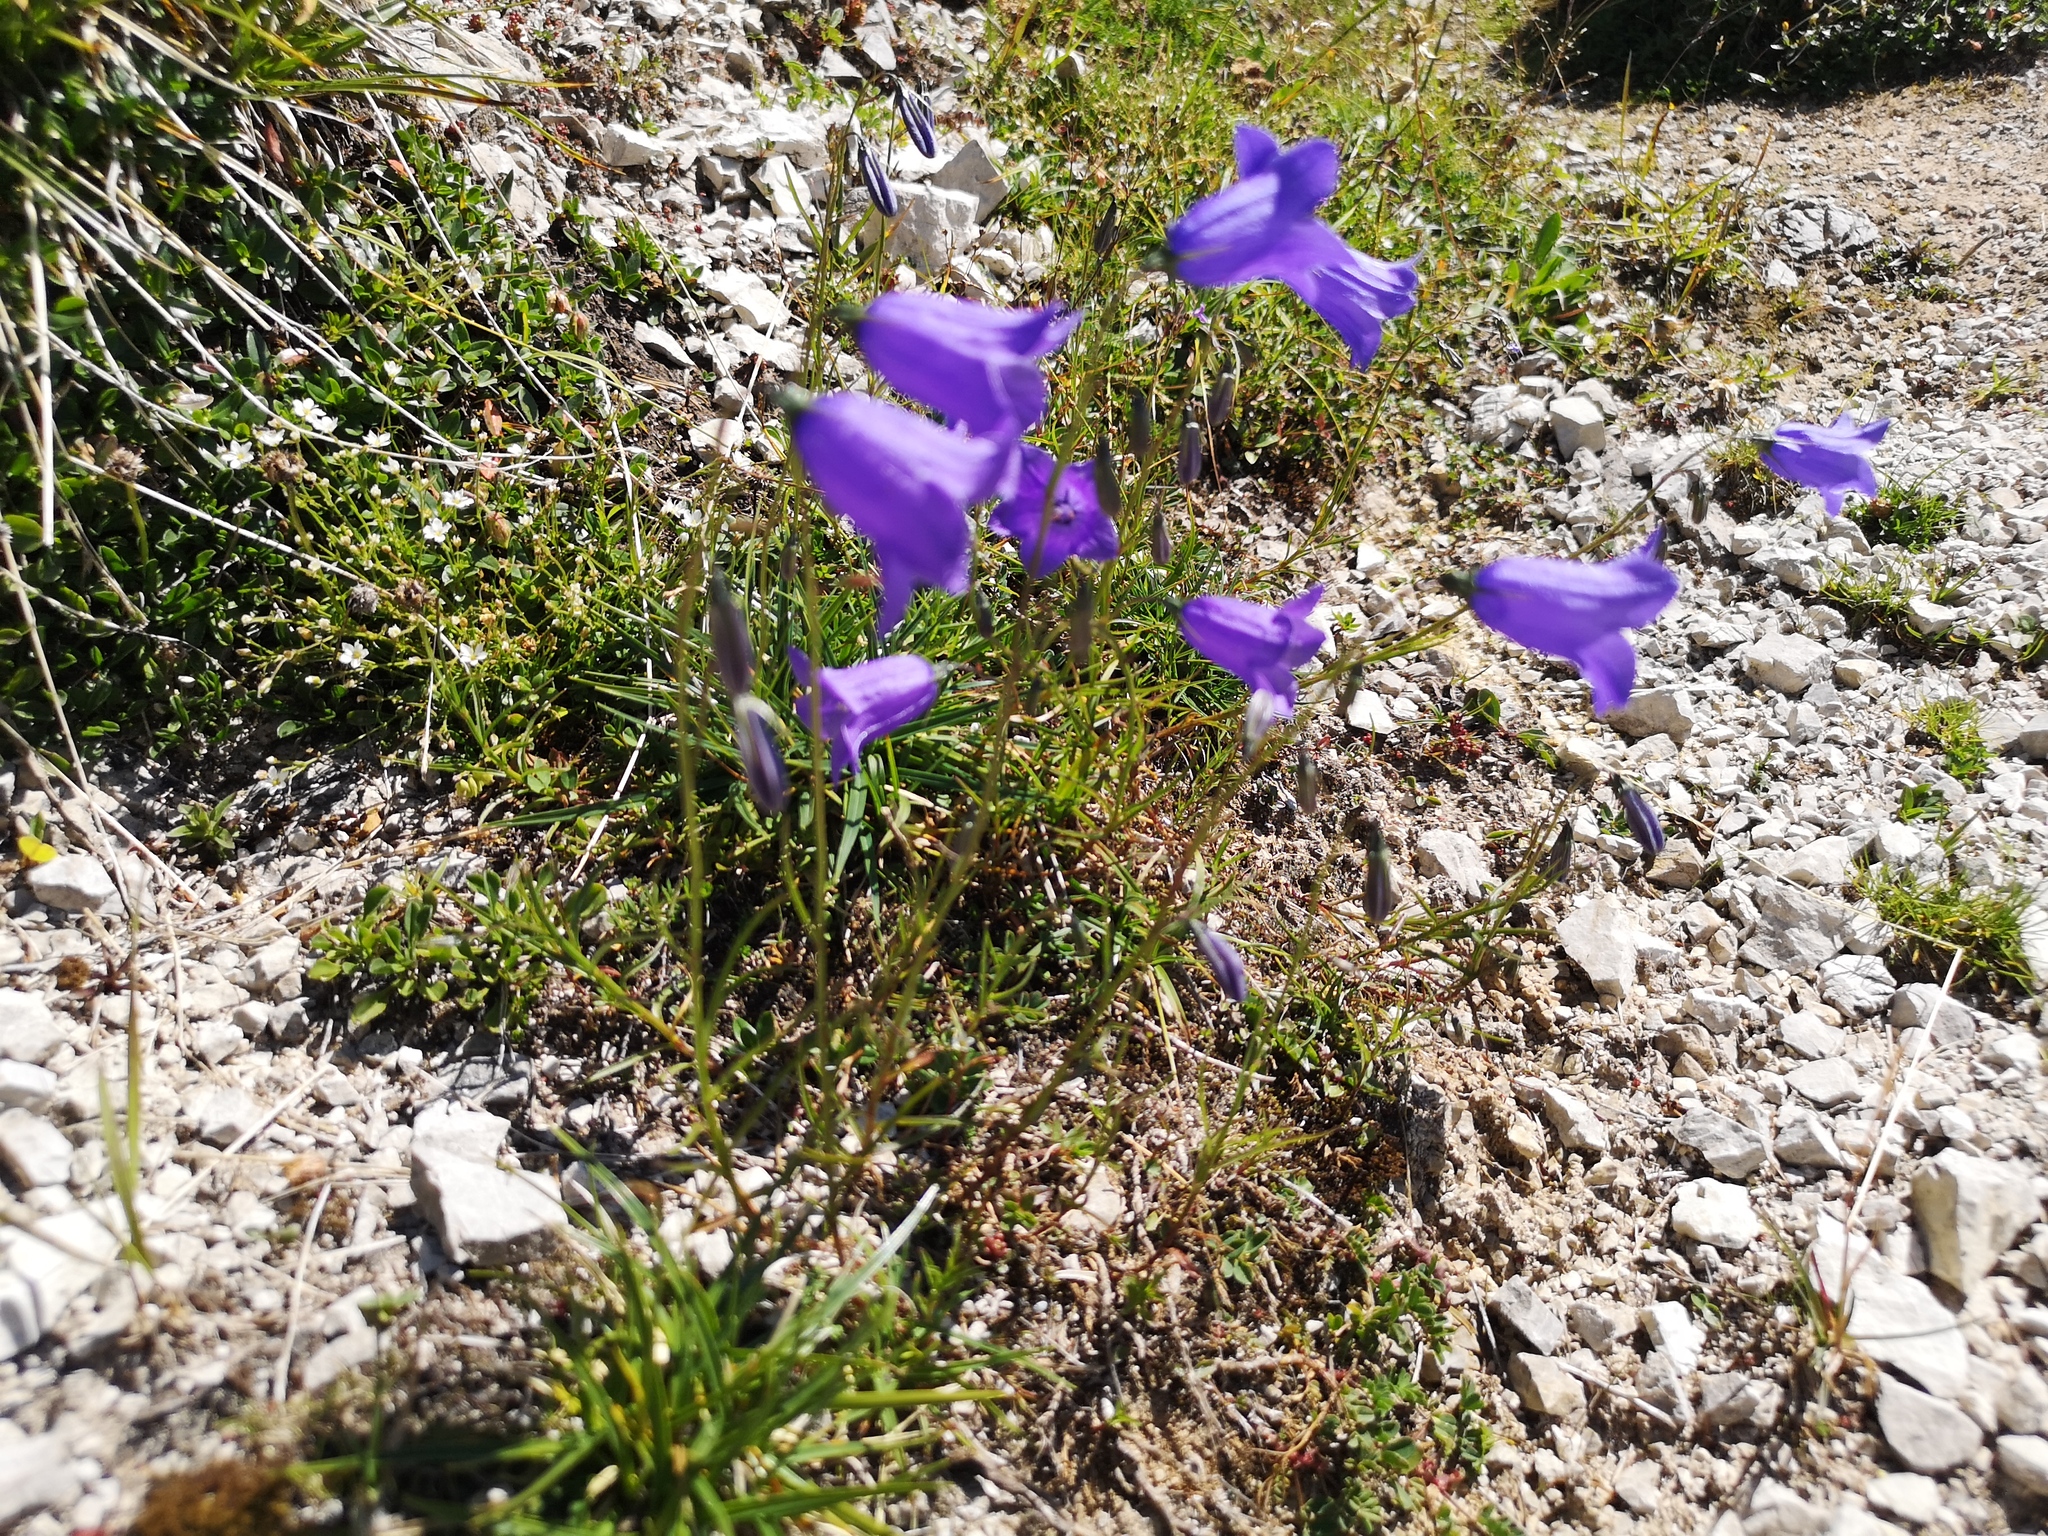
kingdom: Plantae
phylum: Tracheophyta
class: Magnoliopsida
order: Asterales
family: Campanulaceae
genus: Campanula
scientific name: Campanula scheuchzeri
